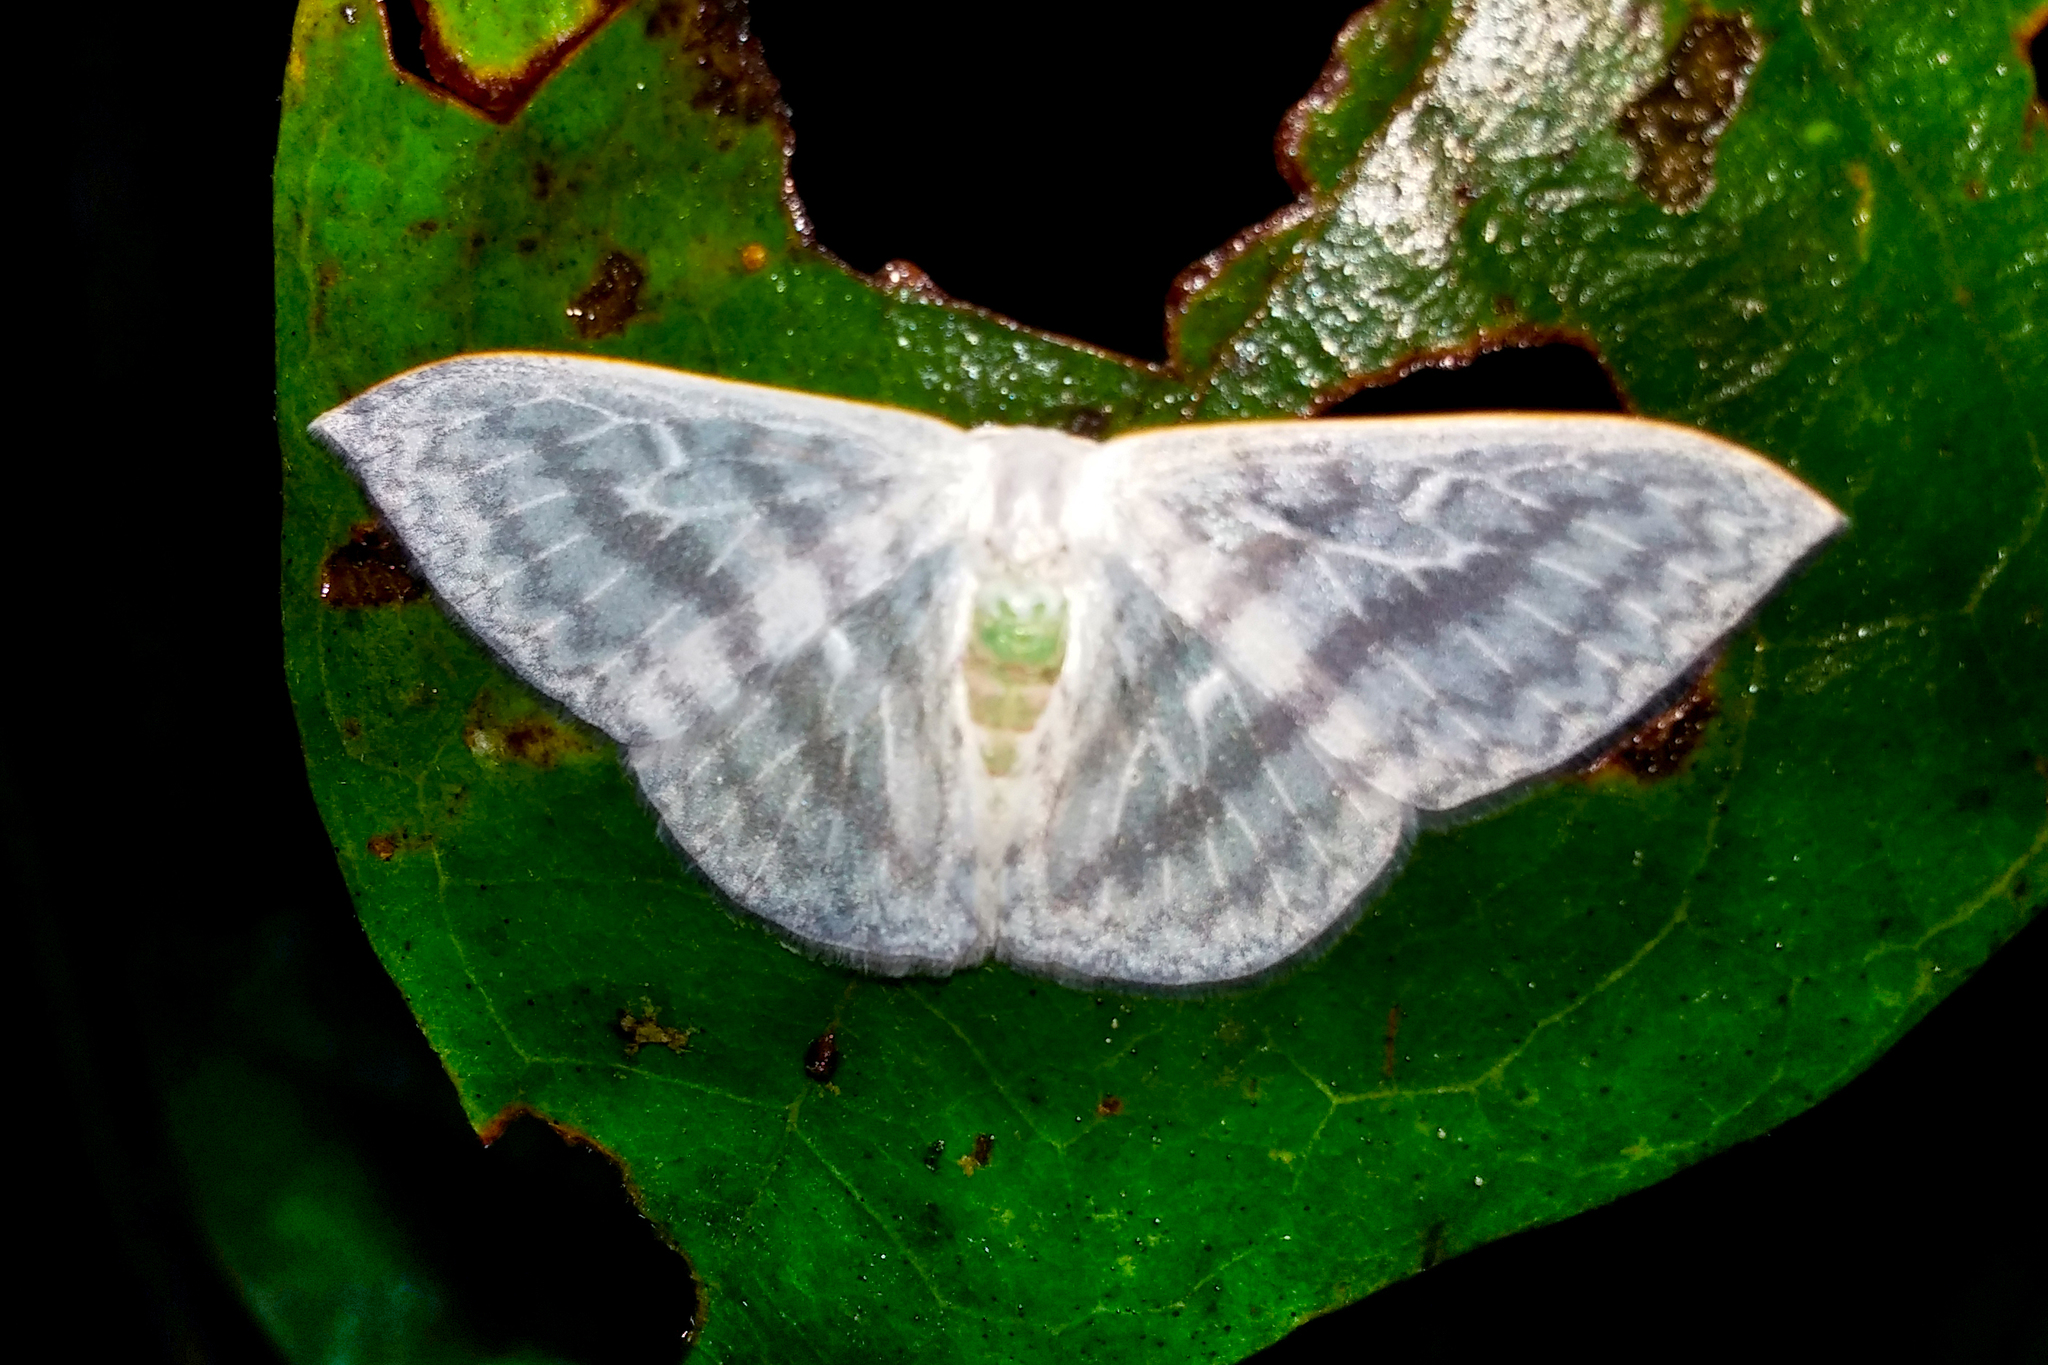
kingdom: Animalia
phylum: Arthropoda
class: Insecta
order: Lepidoptera
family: Drepanidae
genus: Argodrepana
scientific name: Argodrepana verticata
